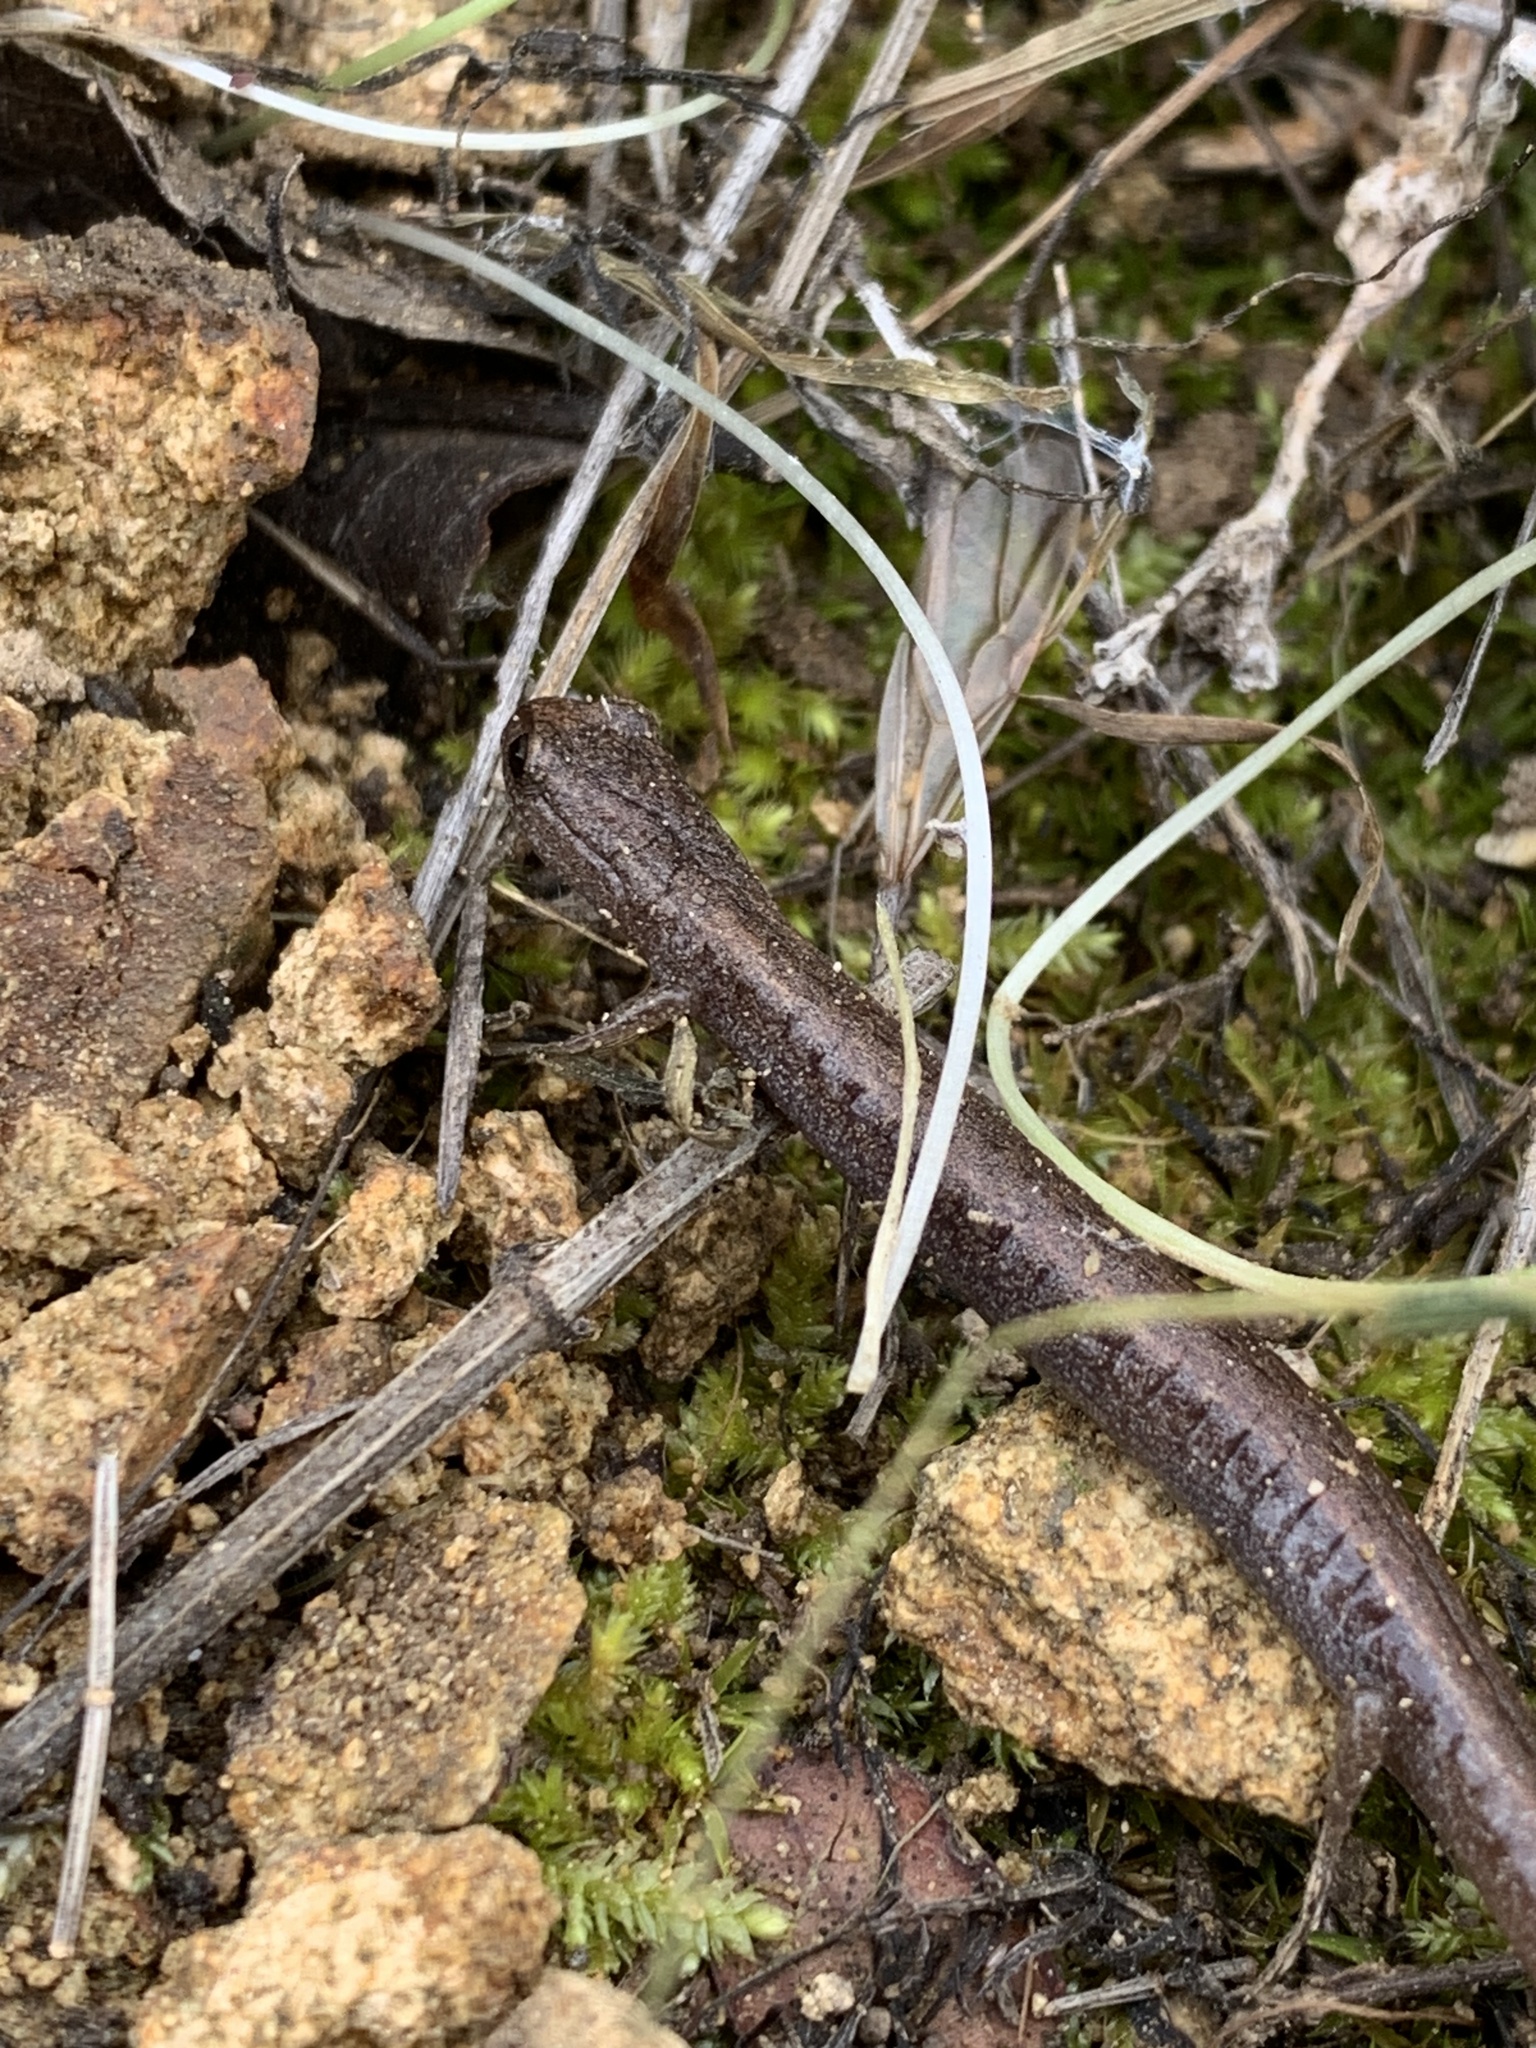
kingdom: Animalia
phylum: Chordata
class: Amphibia
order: Caudata
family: Plethodontidae
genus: Batrachoseps
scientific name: Batrachoseps major
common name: Garden slender salamander
